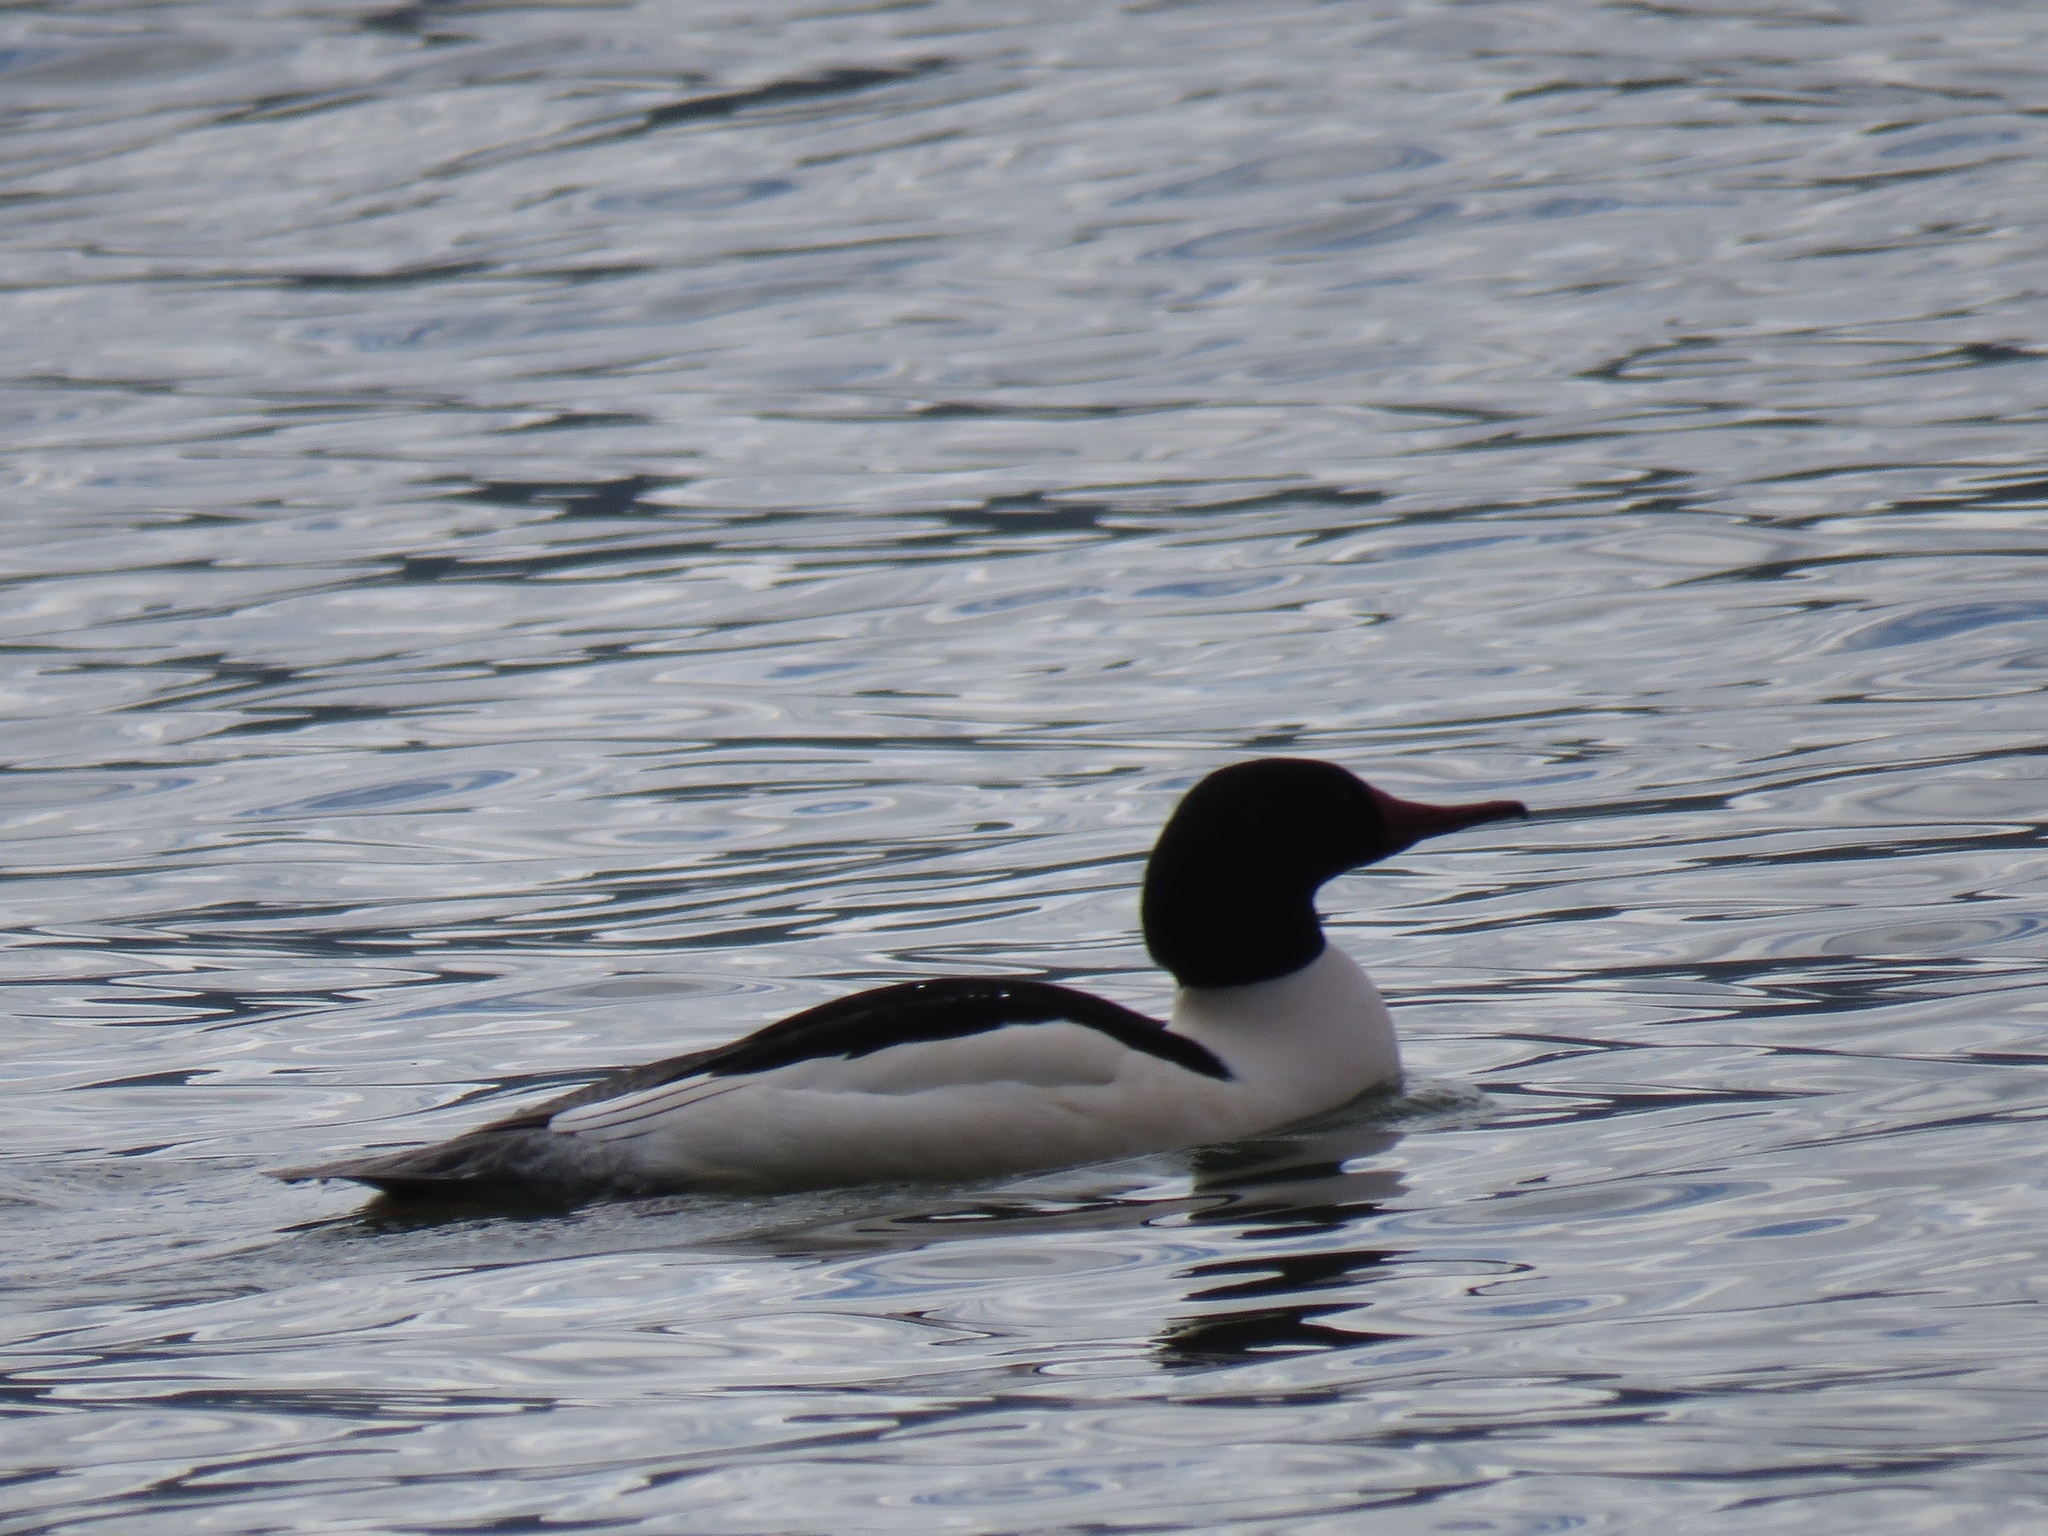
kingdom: Animalia
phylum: Chordata
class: Aves
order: Anseriformes
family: Anatidae
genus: Mergus
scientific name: Mergus merganser
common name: Common merganser
